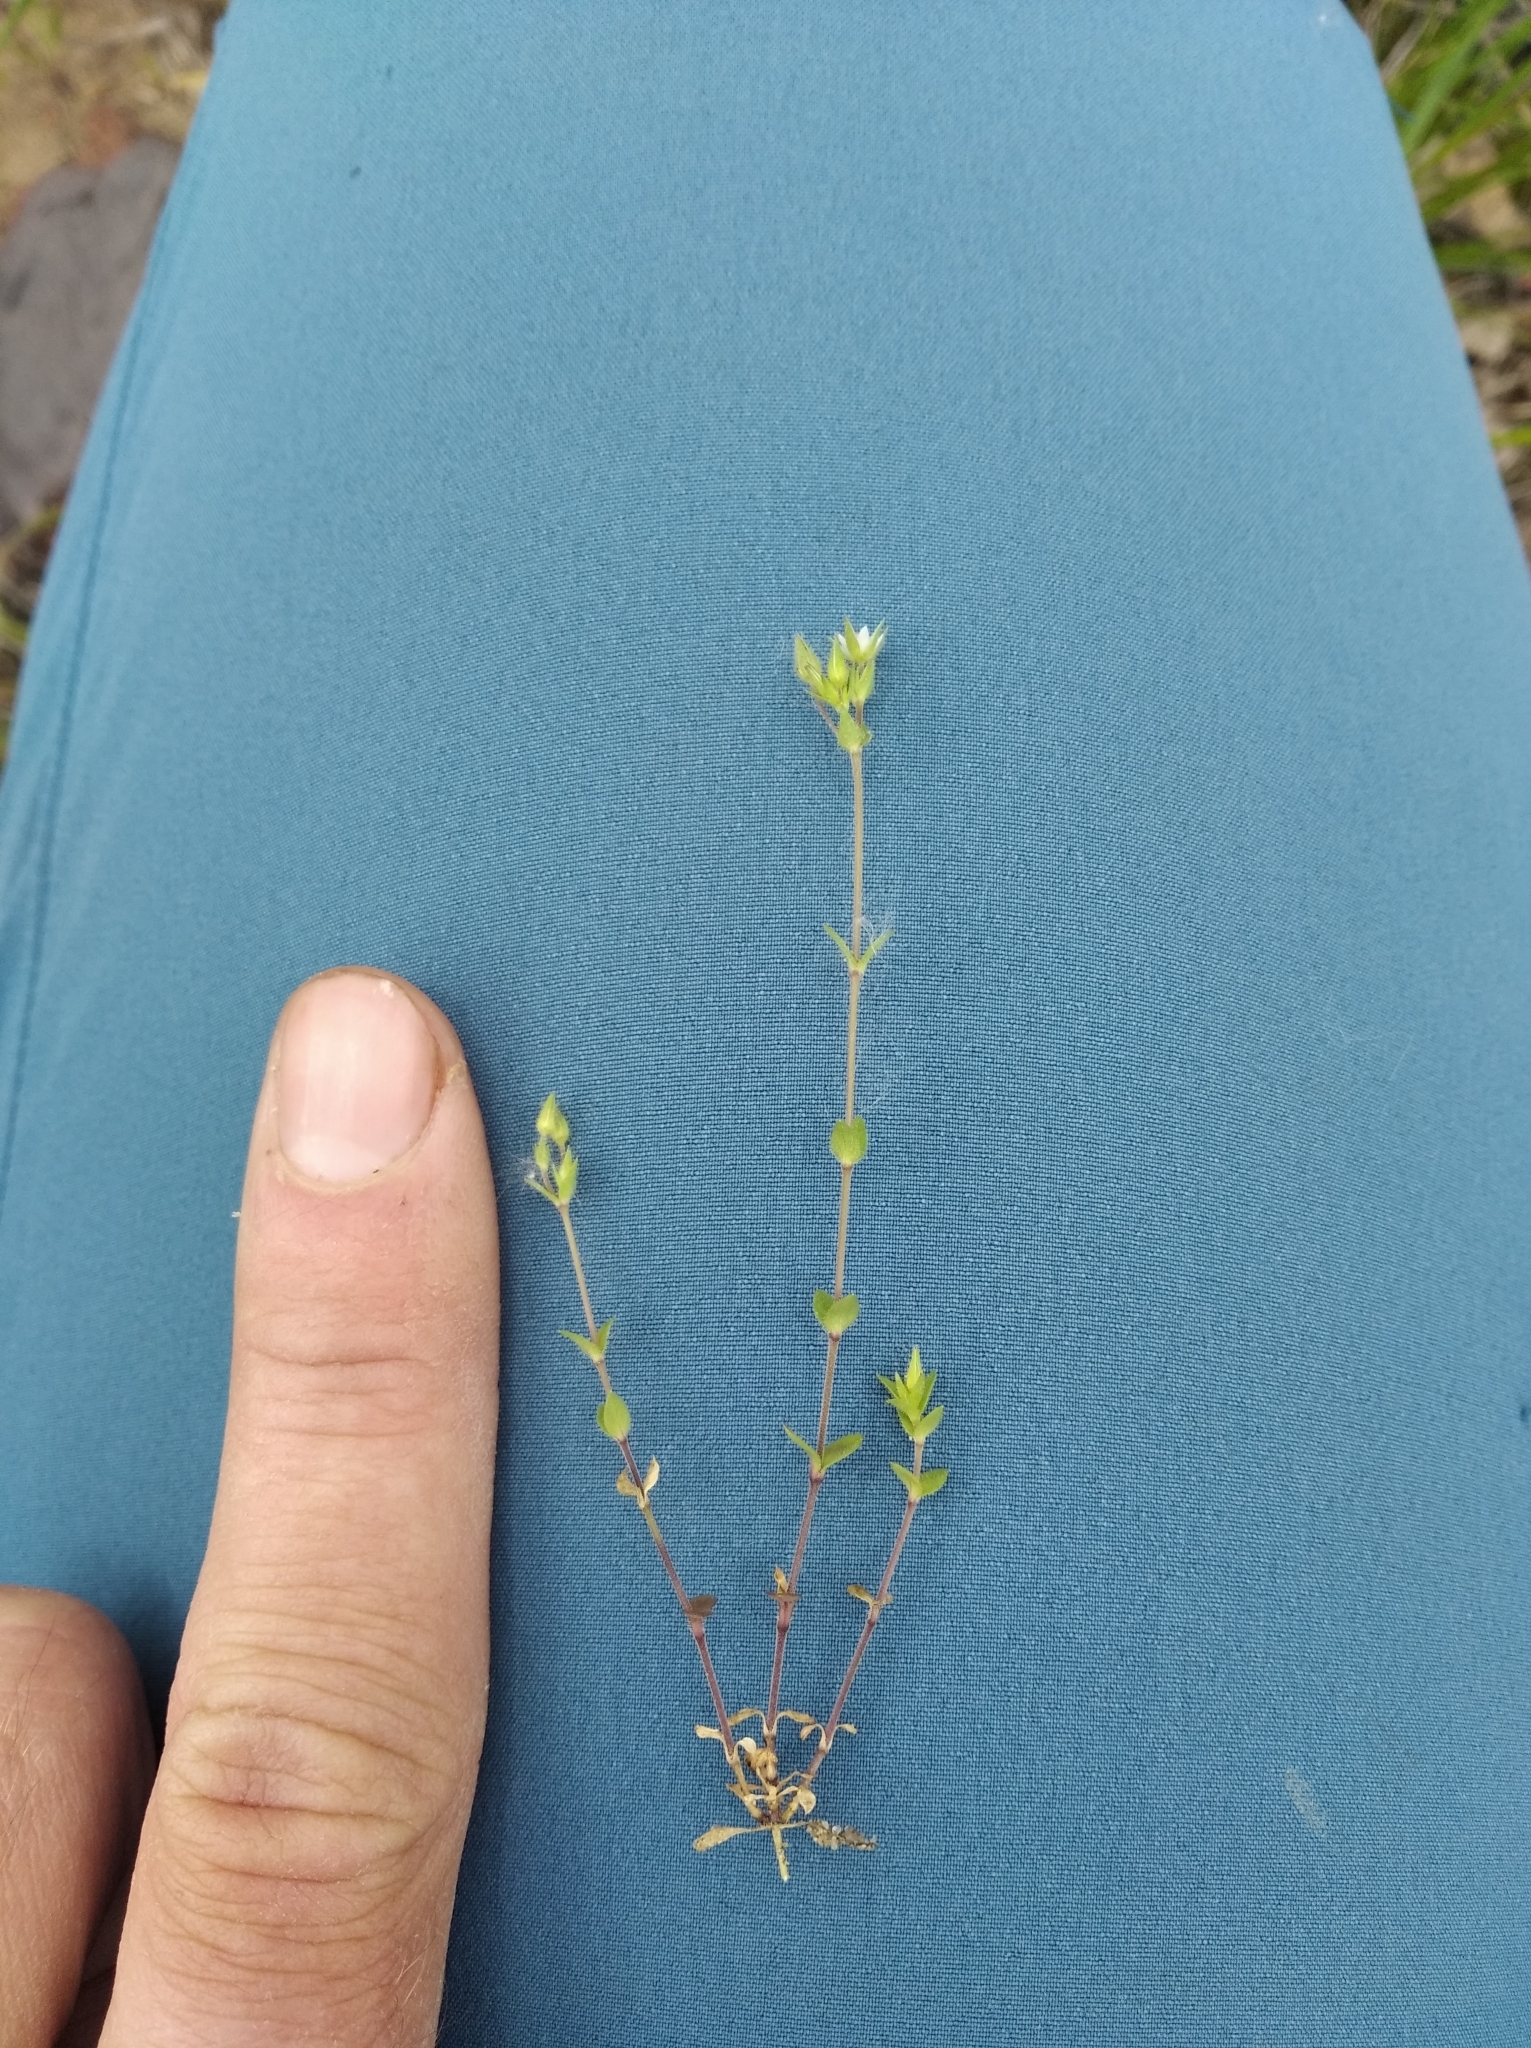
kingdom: Plantae
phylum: Tracheophyta
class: Magnoliopsida
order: Caryophyllales
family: Caryophyllaceae
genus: Arenaria
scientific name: Arenaria serpyllifolia
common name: Thyme-leaved sandwort
